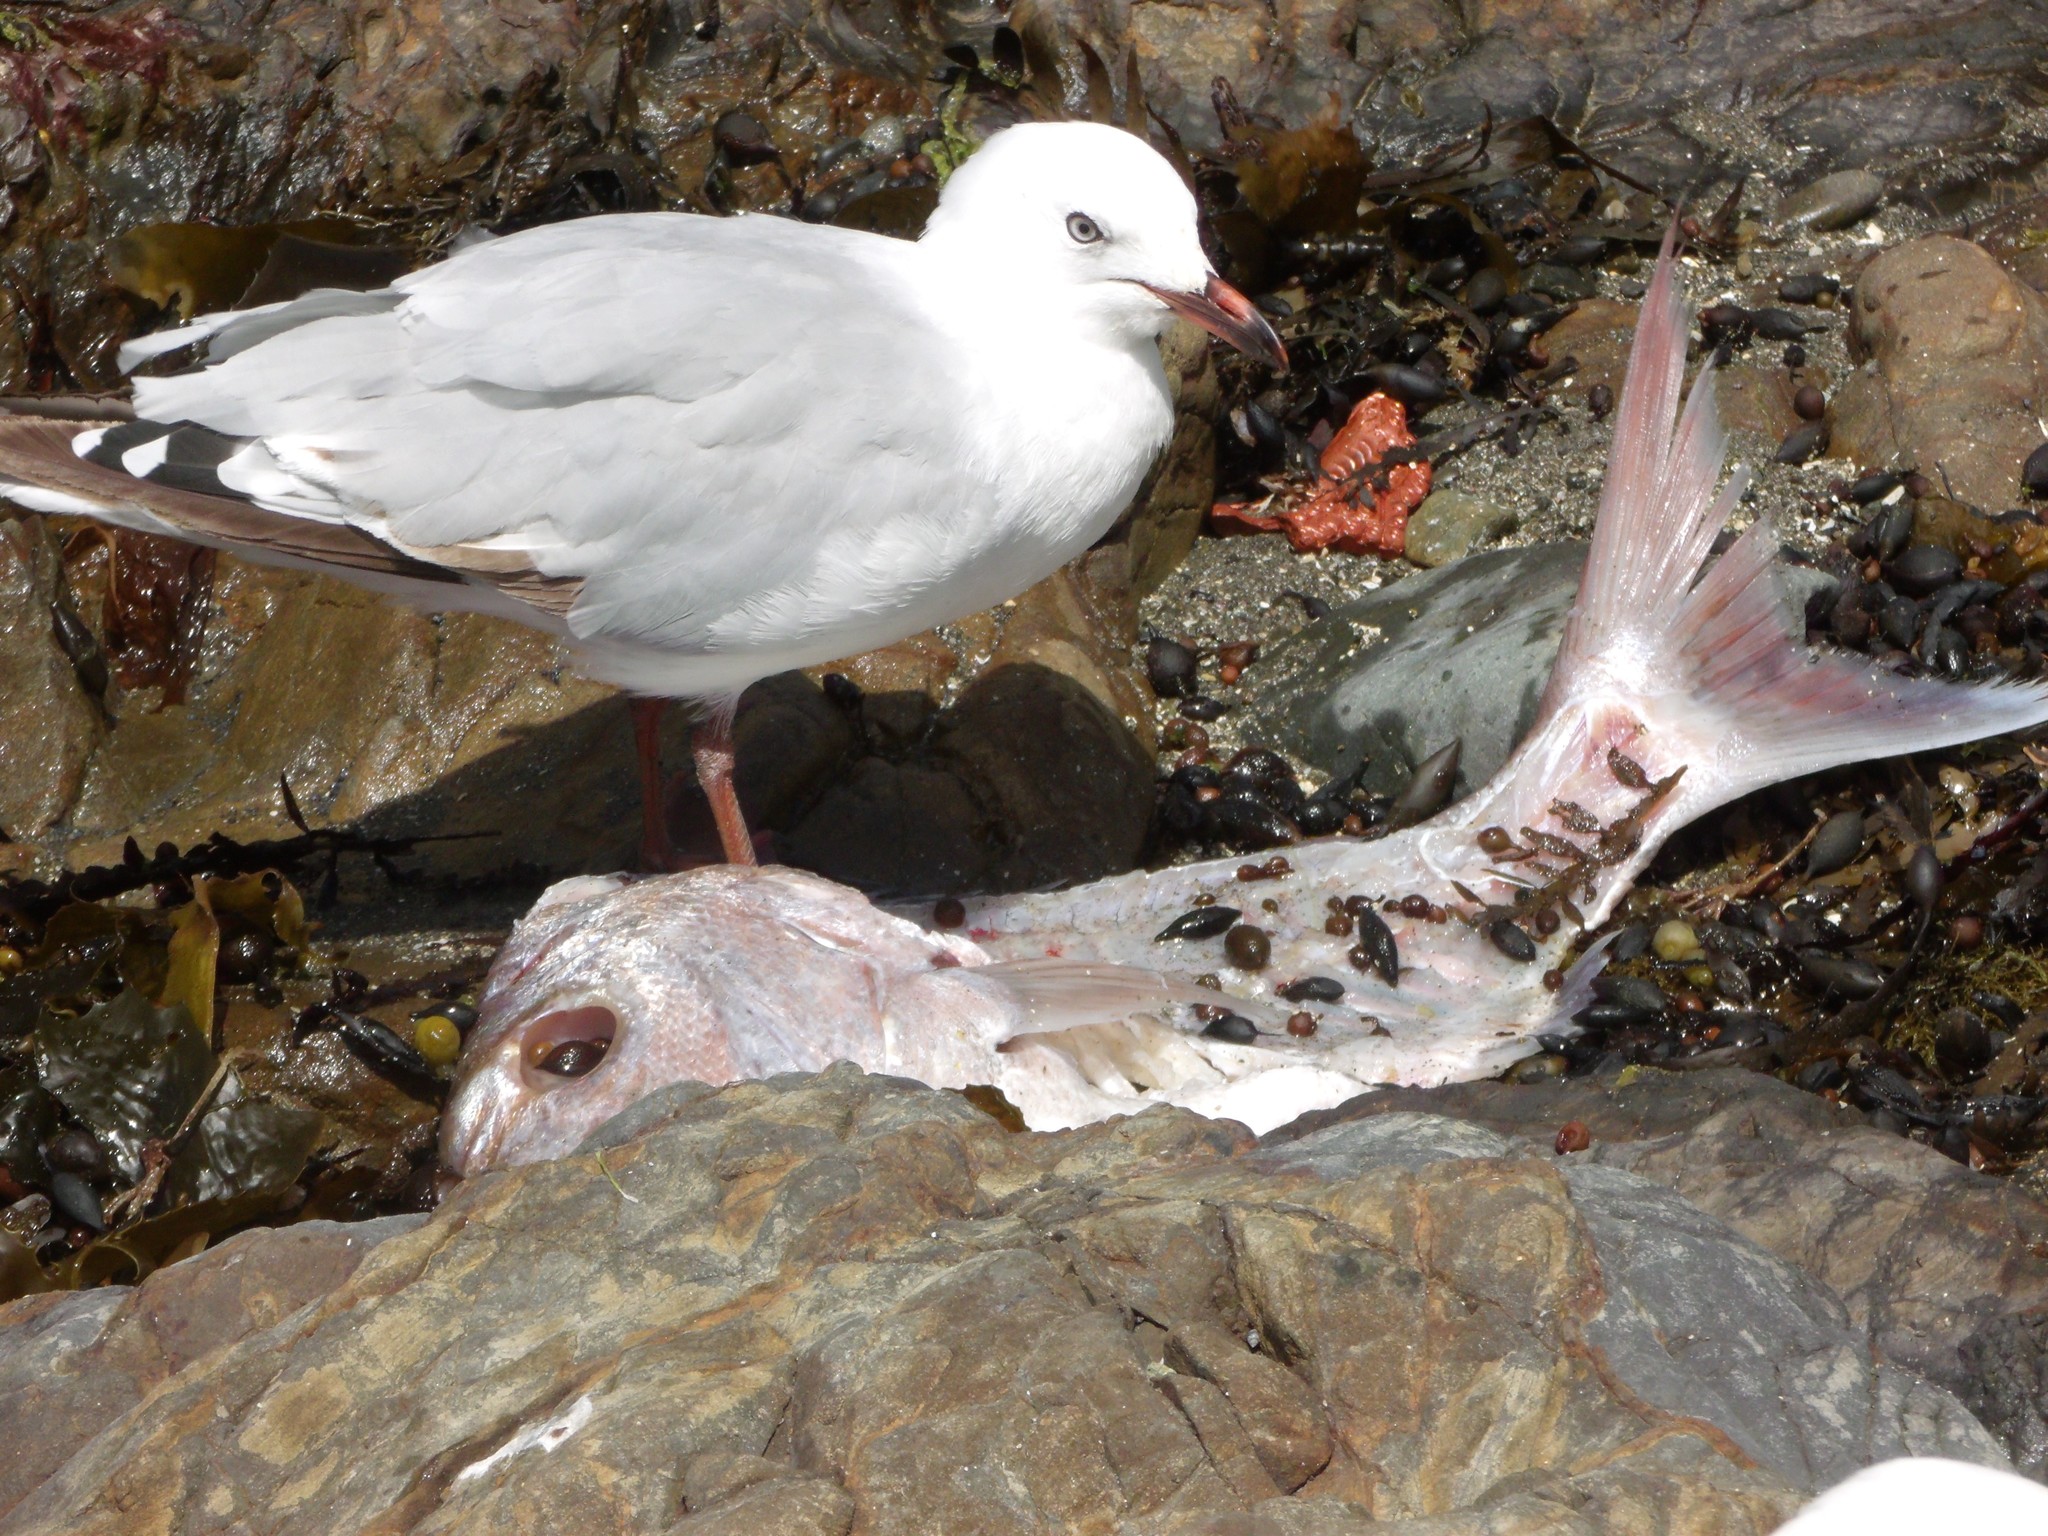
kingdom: Animalia
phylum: Chordata
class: Aves
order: Charadriiformes
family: Laridae
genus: Chroicocephalus
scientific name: Chroicocephalus novaehollandiae
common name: Silver gull
